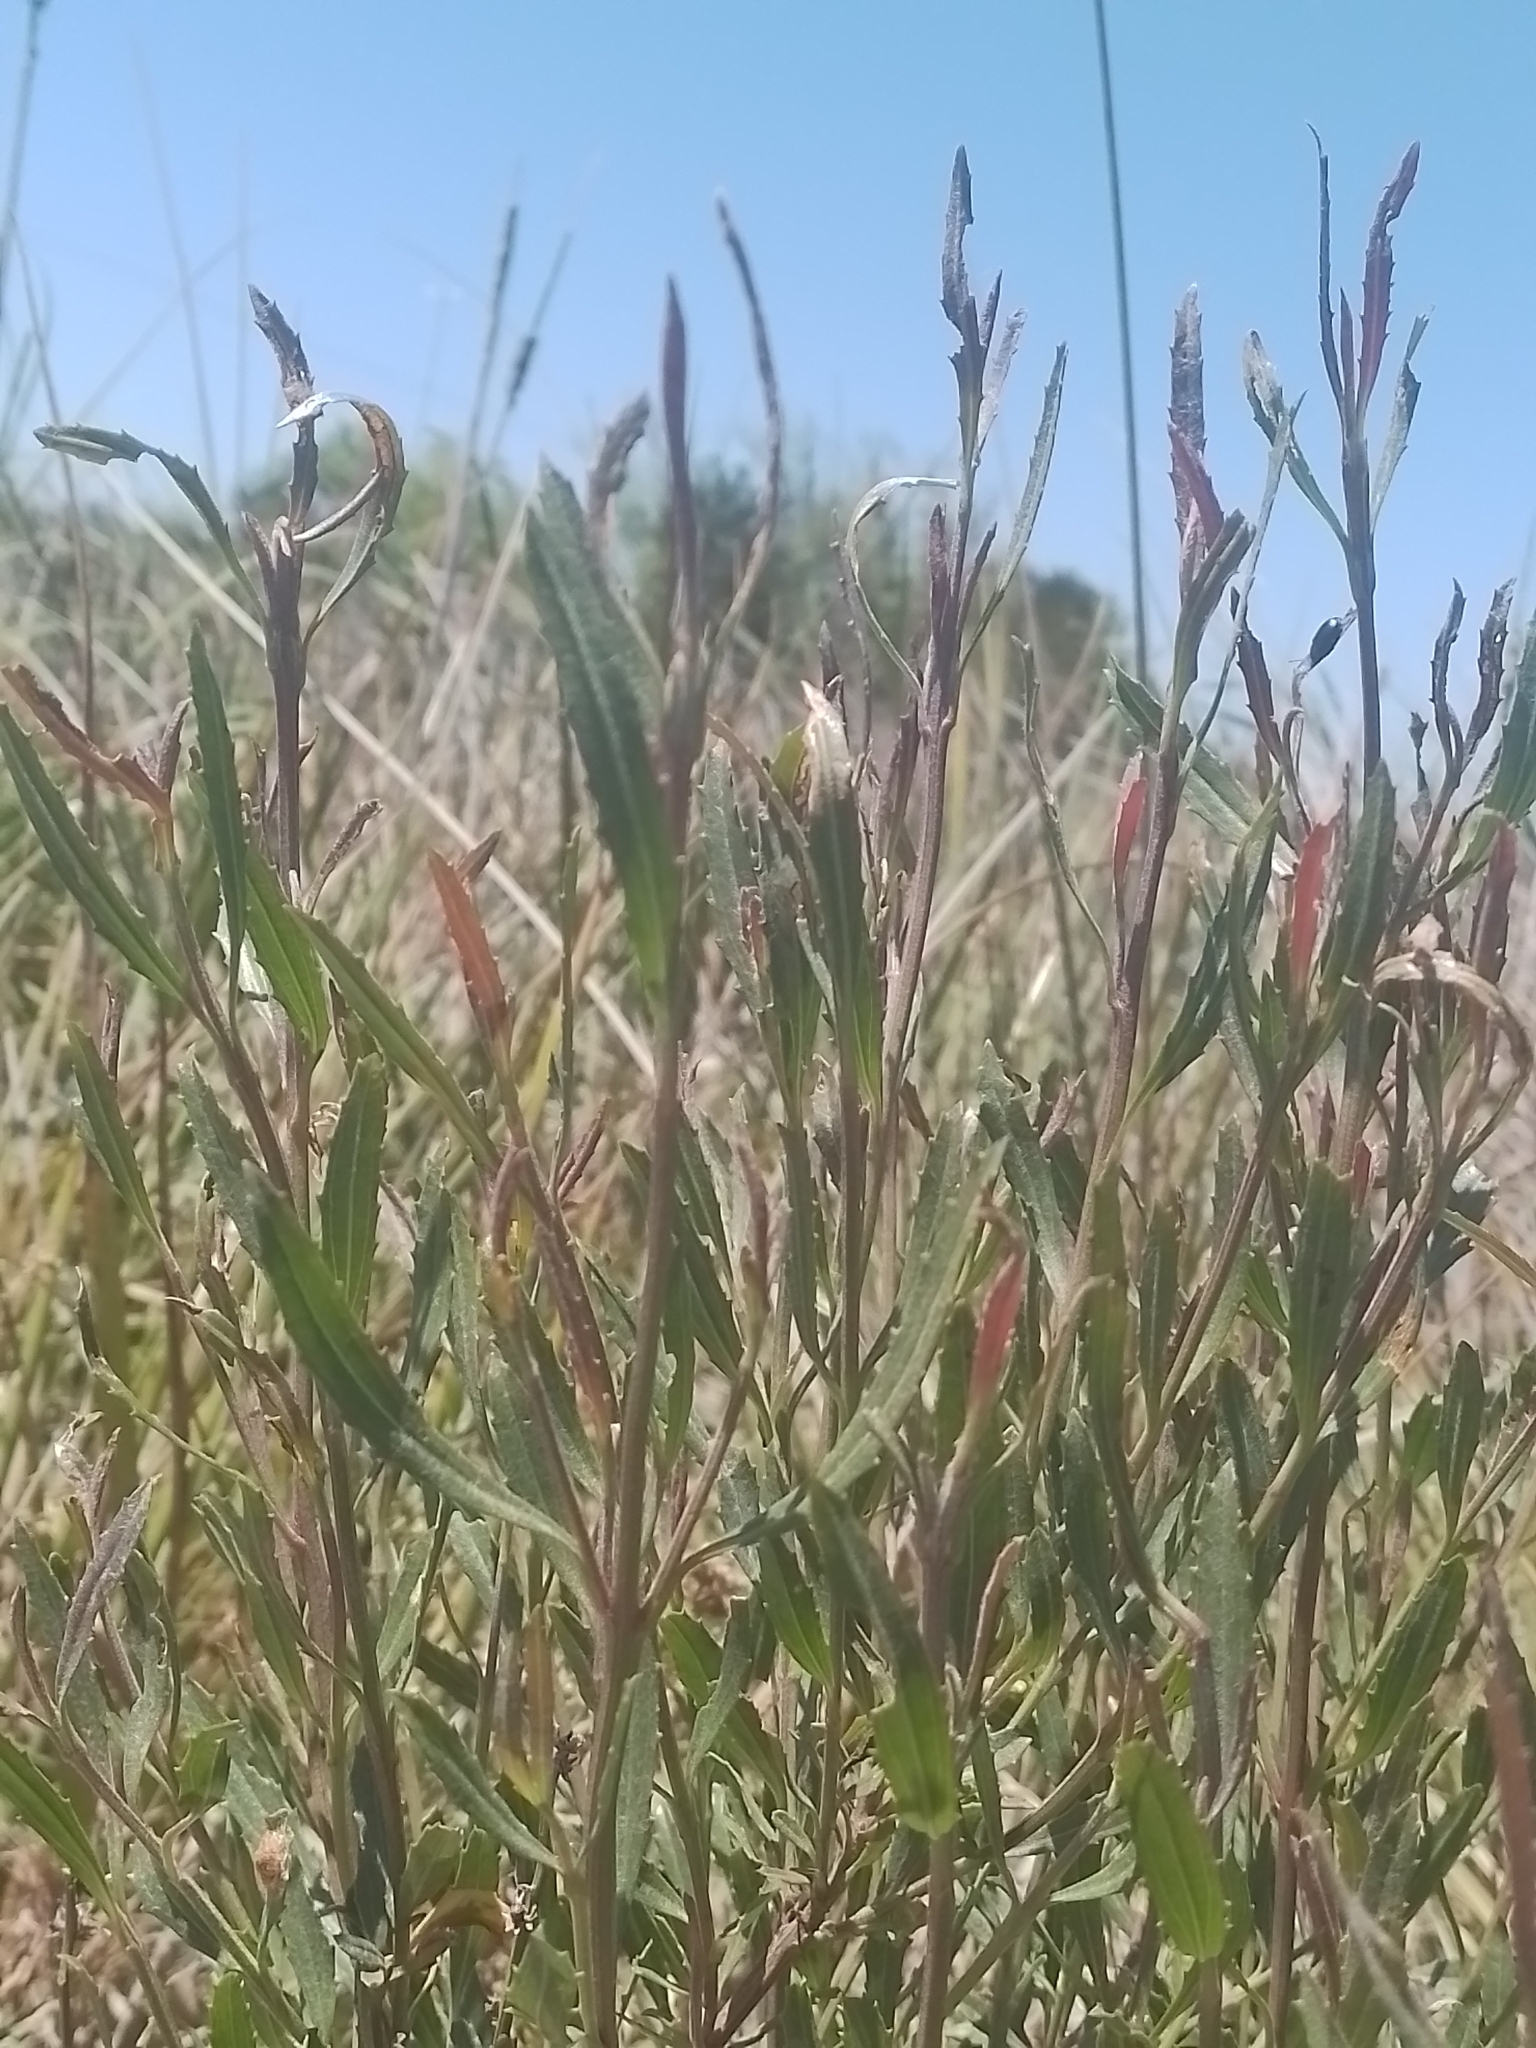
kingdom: Plantae
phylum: Tracheophyta
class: Magnoliopsida
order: Asterales
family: Asteraceae
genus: Baccharis
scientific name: Baccharis spicata
